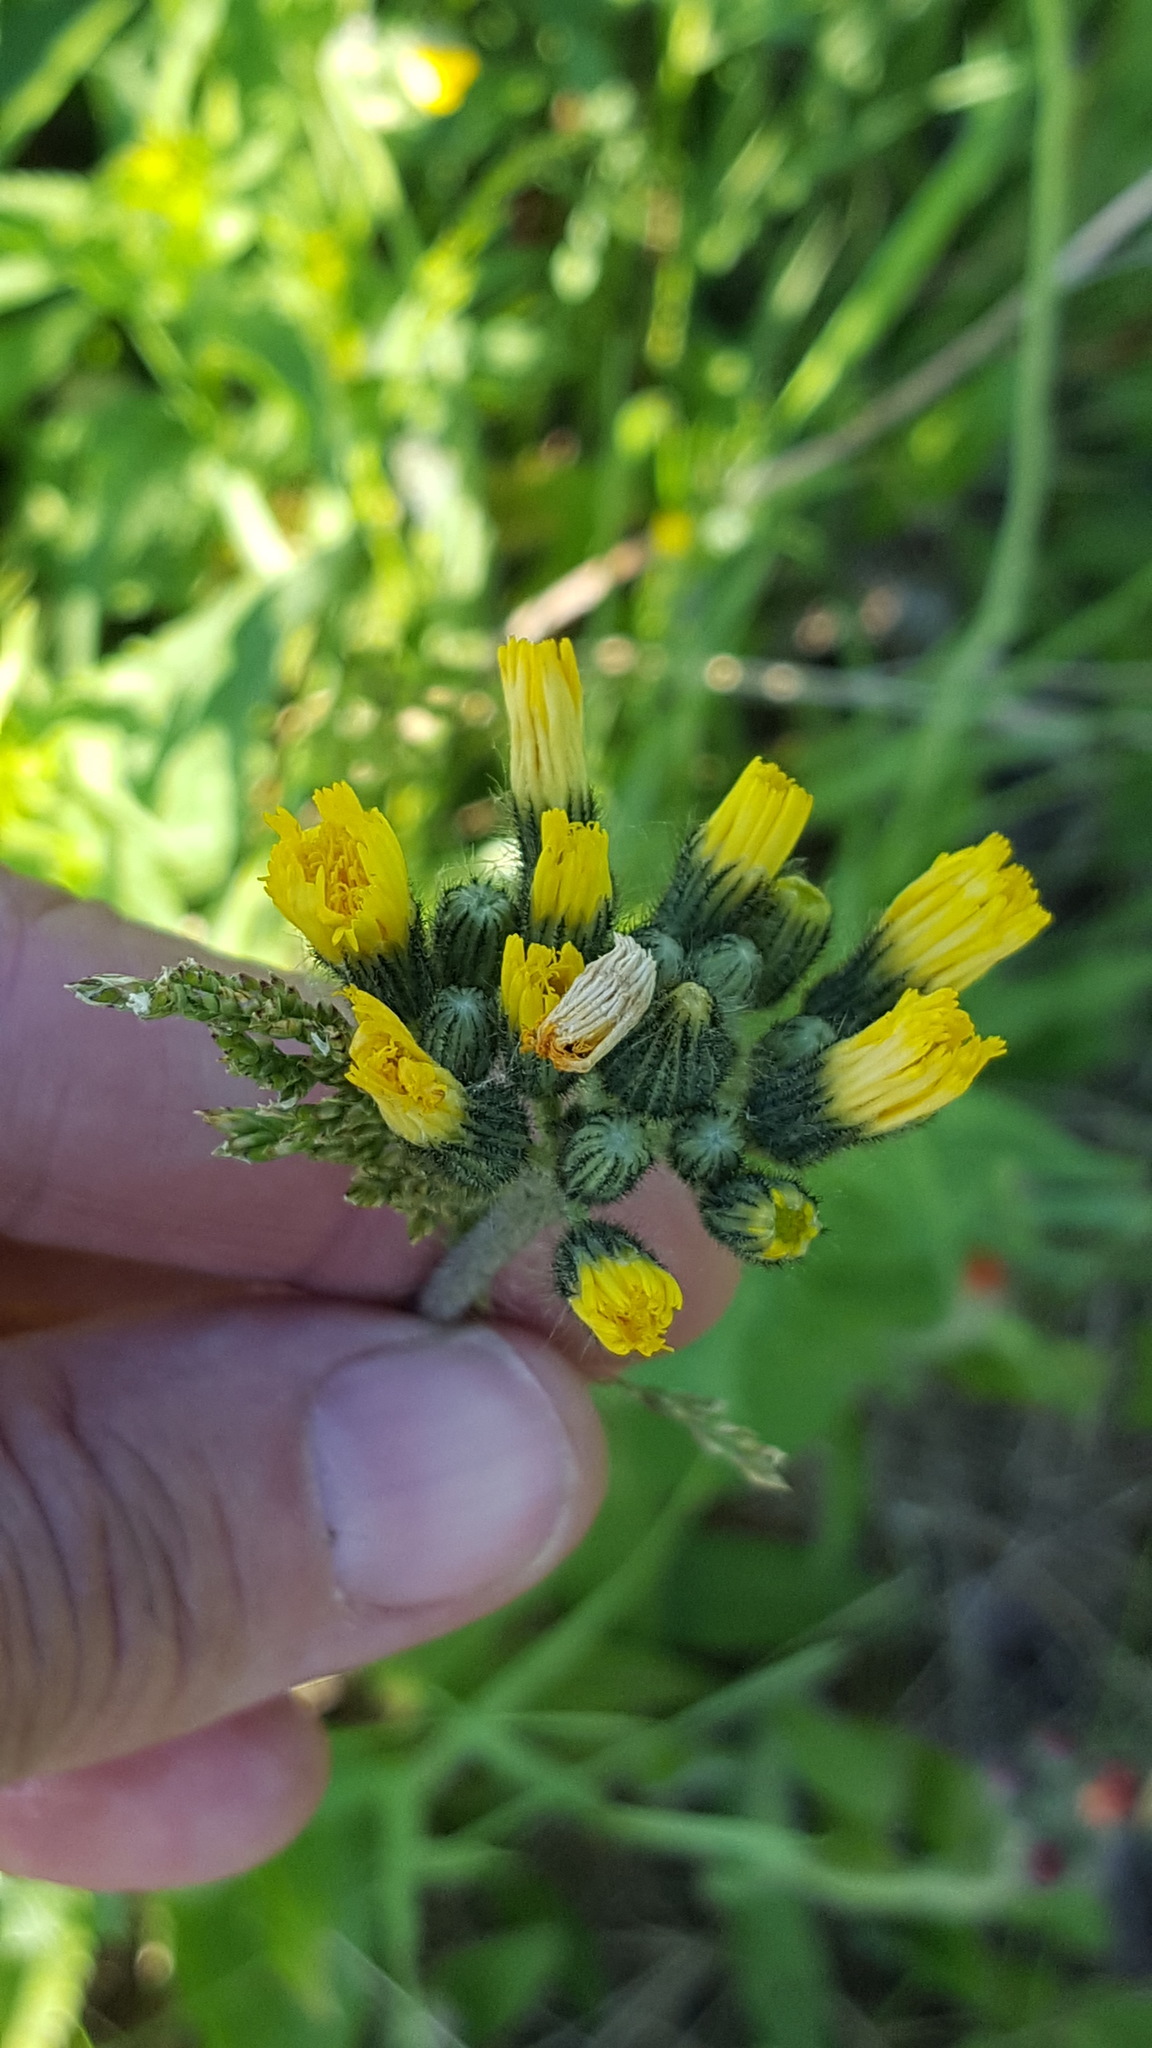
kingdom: Plantae
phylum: Tracheophyta
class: Magnoliopsida
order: Asterales
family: Asteraceae
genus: Pilosella
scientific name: Pilosella caespitosa
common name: Yellow fox-and-cubs
